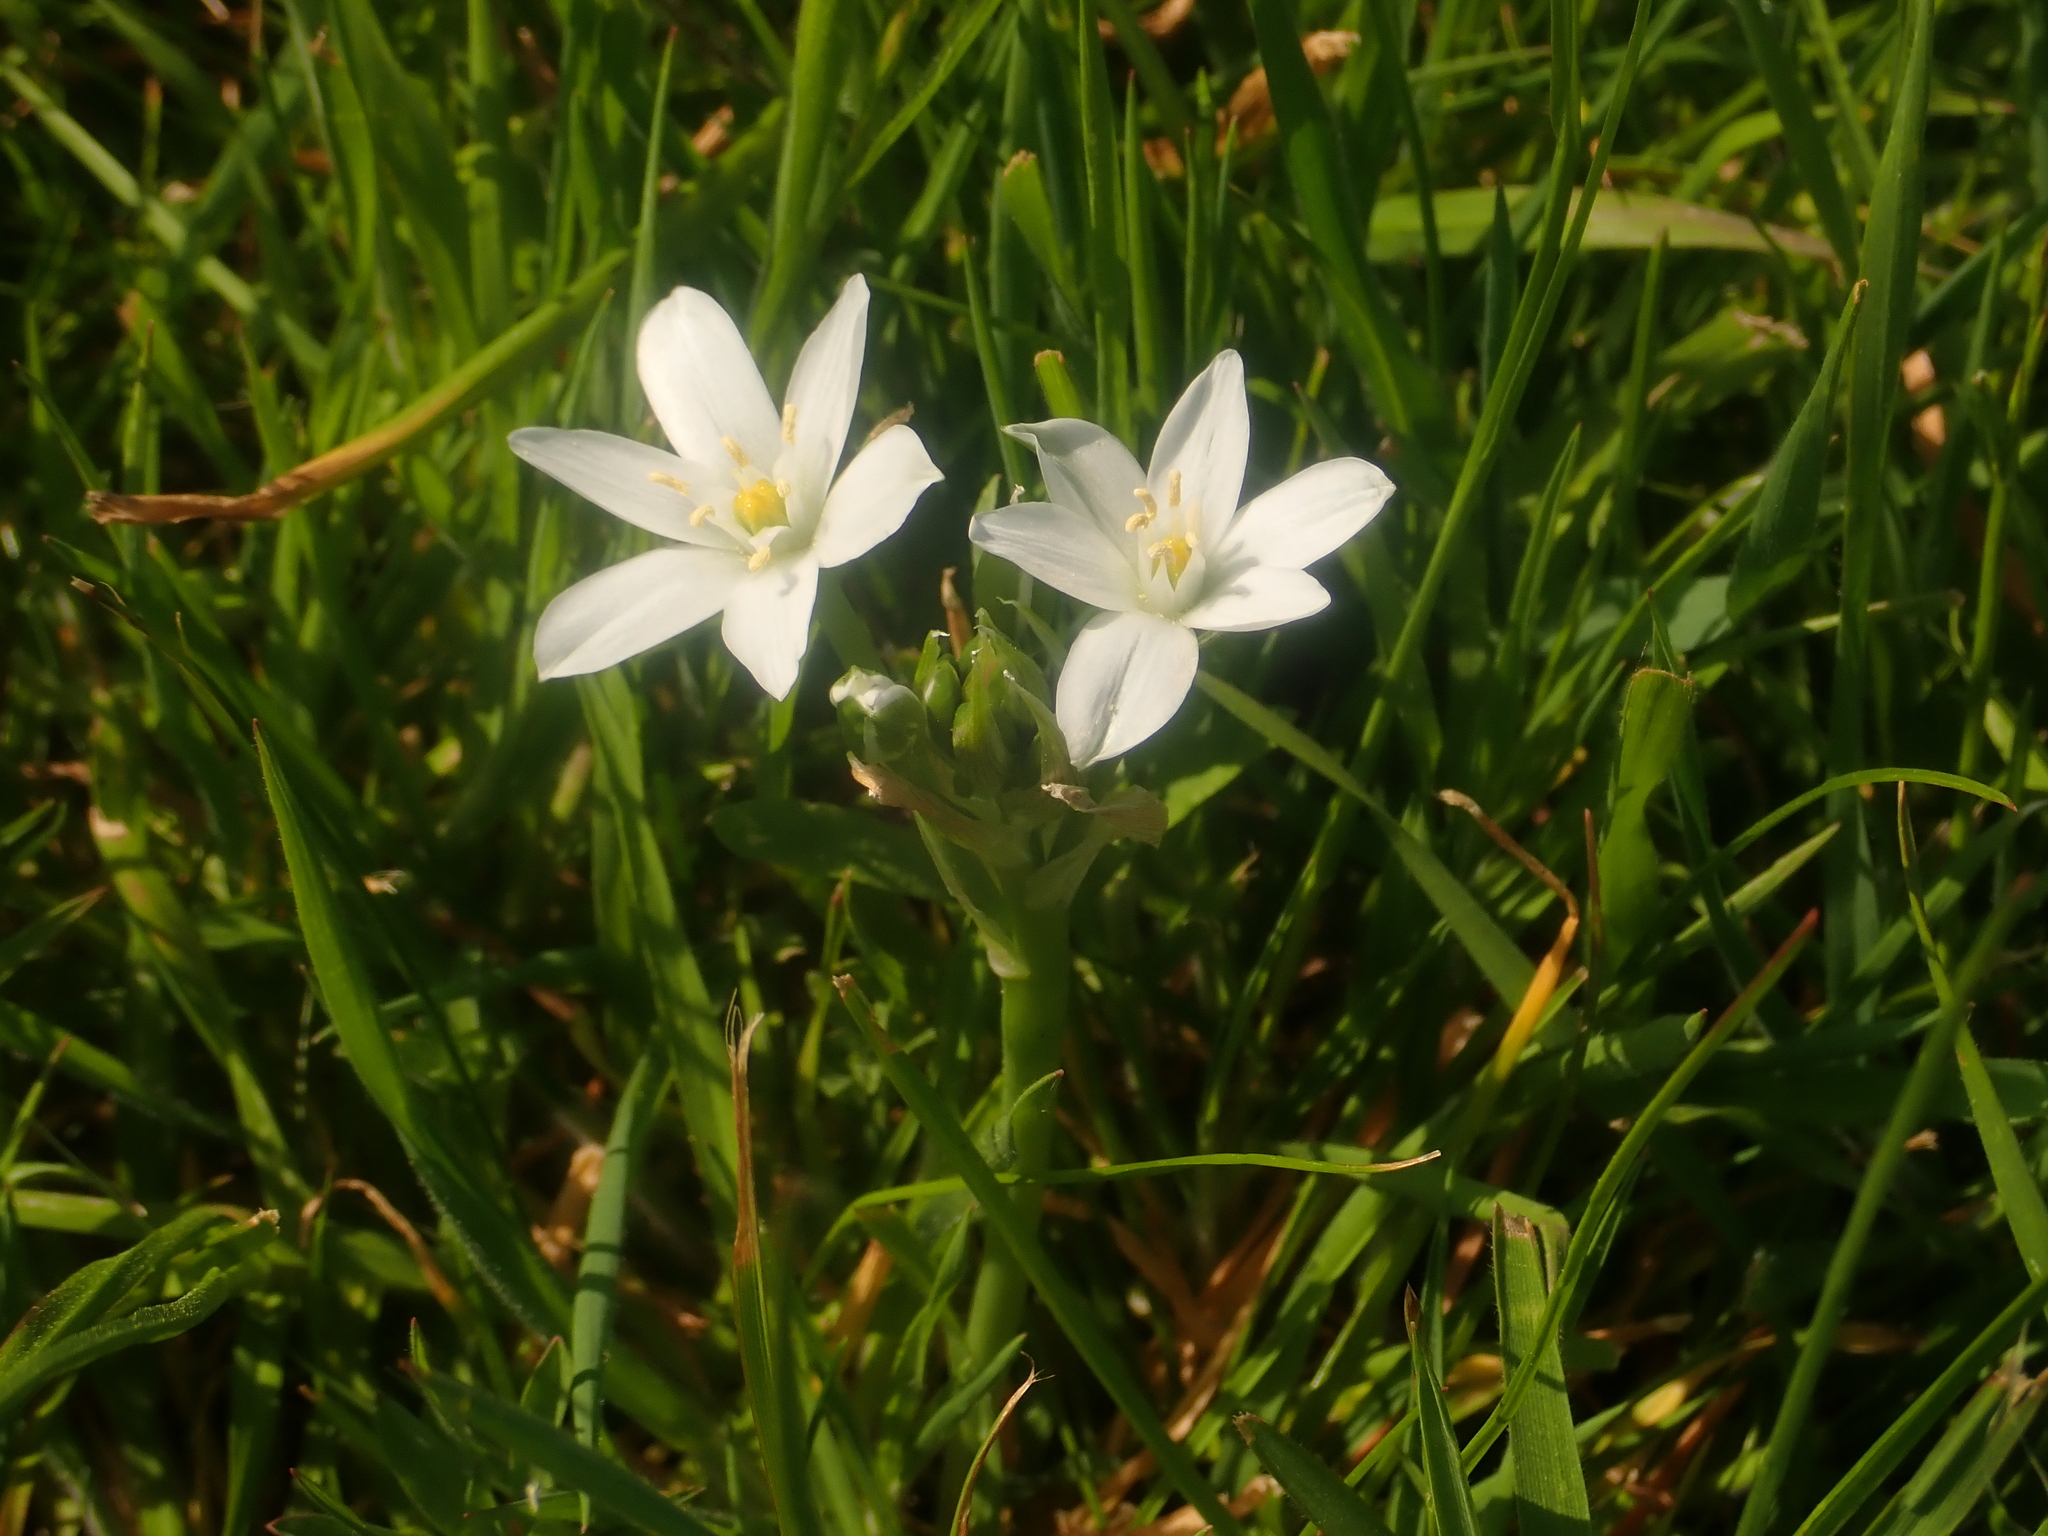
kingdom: Plantae
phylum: Tracheophyta
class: Liliopsida
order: Asparagales
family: Asparagaceae
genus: Ornithogalum
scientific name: Ornithogalum umbellatum
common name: Garden star-of-bethlehem
